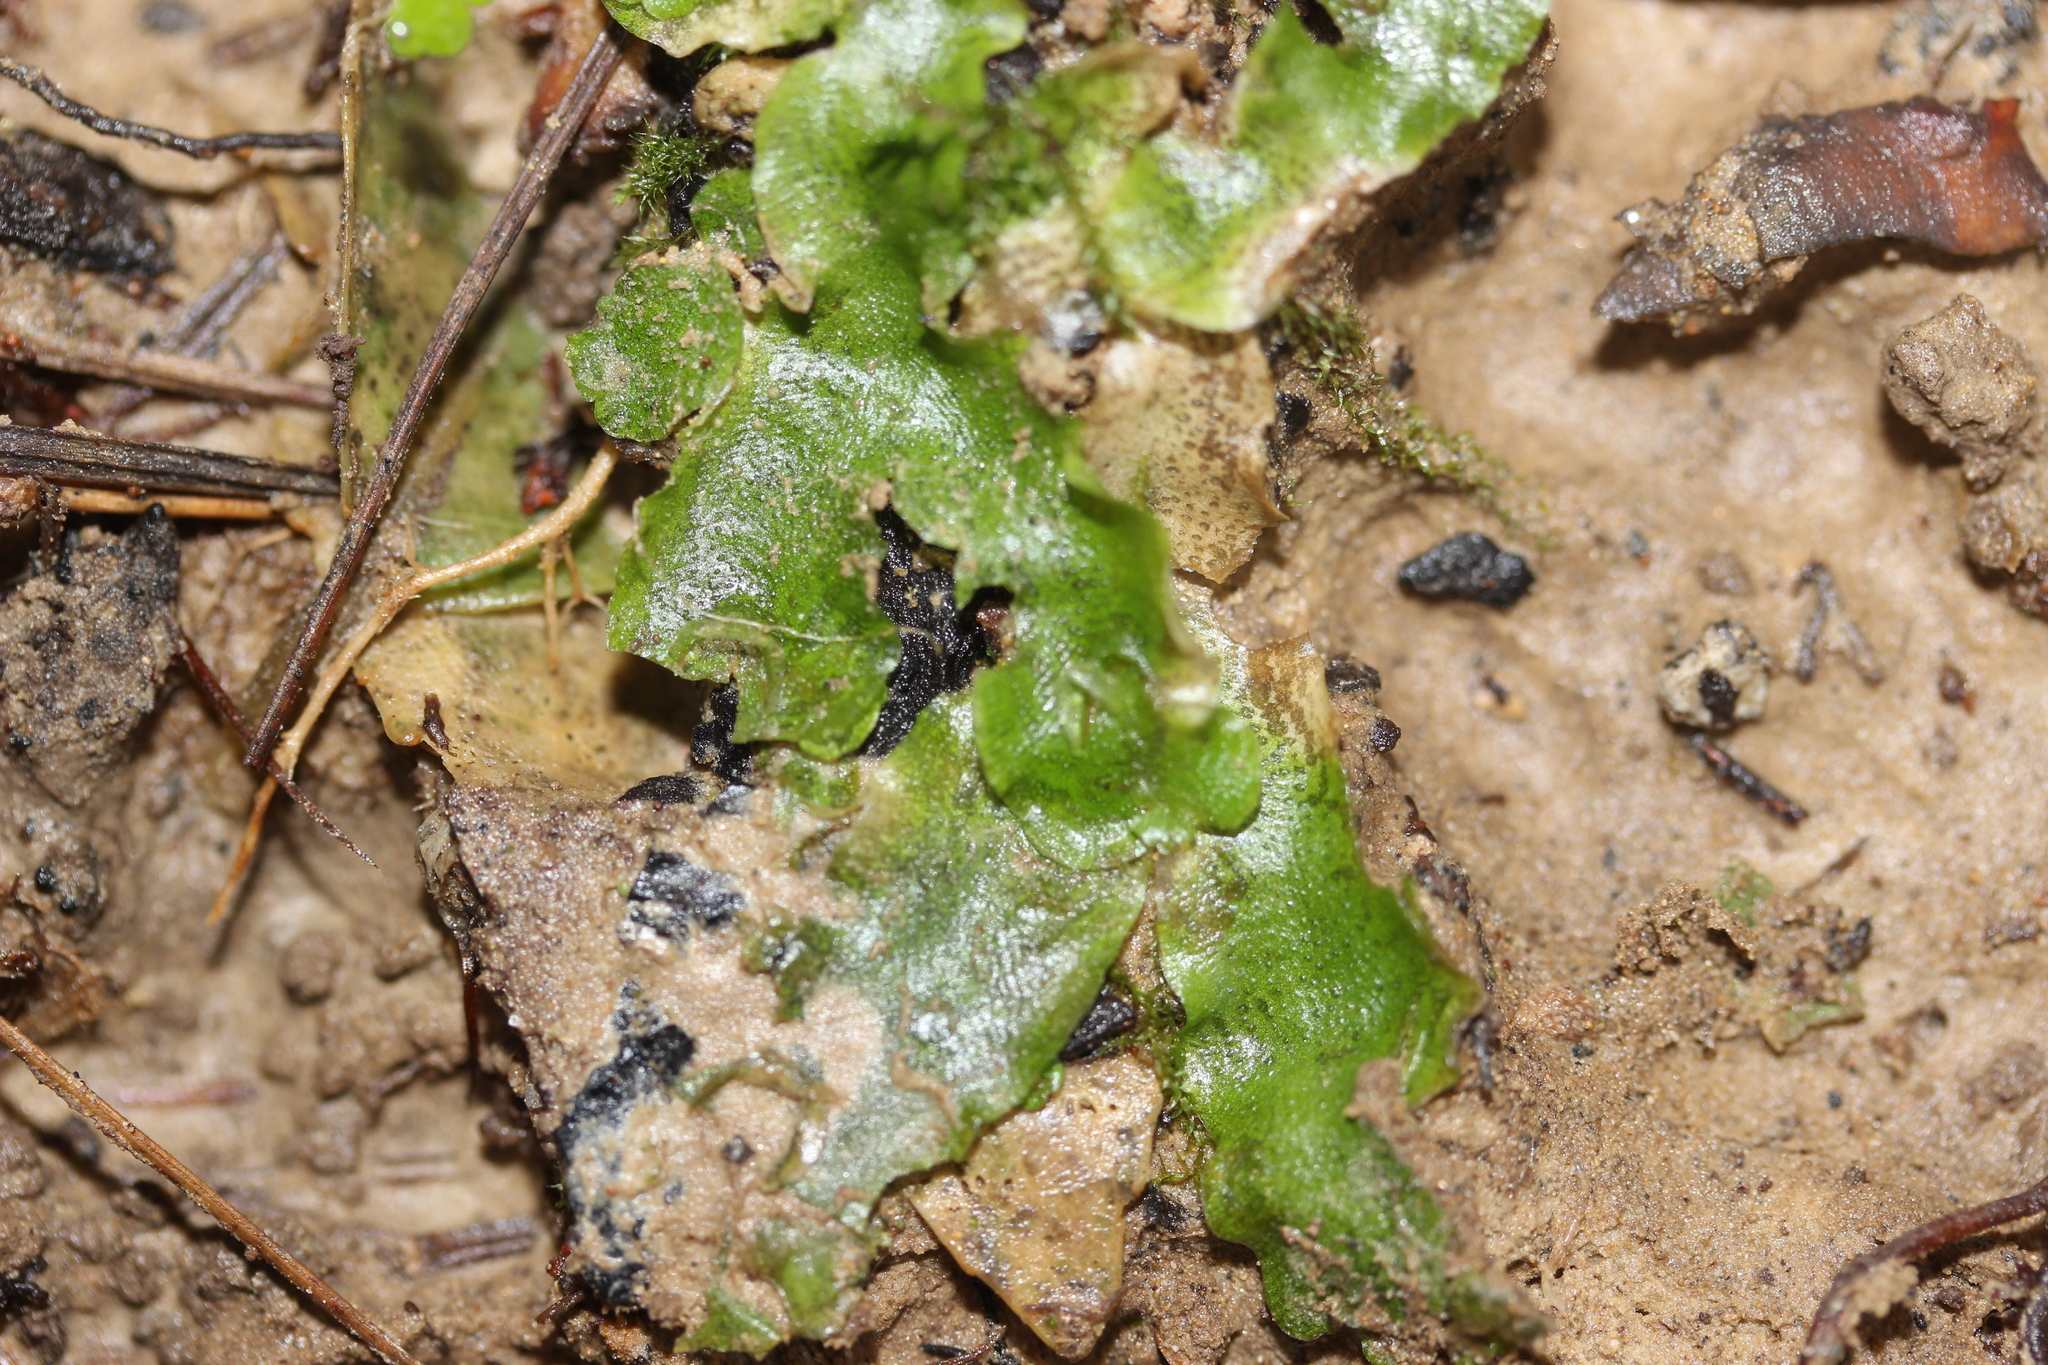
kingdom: Plantae
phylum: Marchantiophyta
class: Marchantiopsida
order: Lunulariales
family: Lunulariaceae
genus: Lunularia
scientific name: Lunularia cruciata
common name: Crescent-cup liverwort
